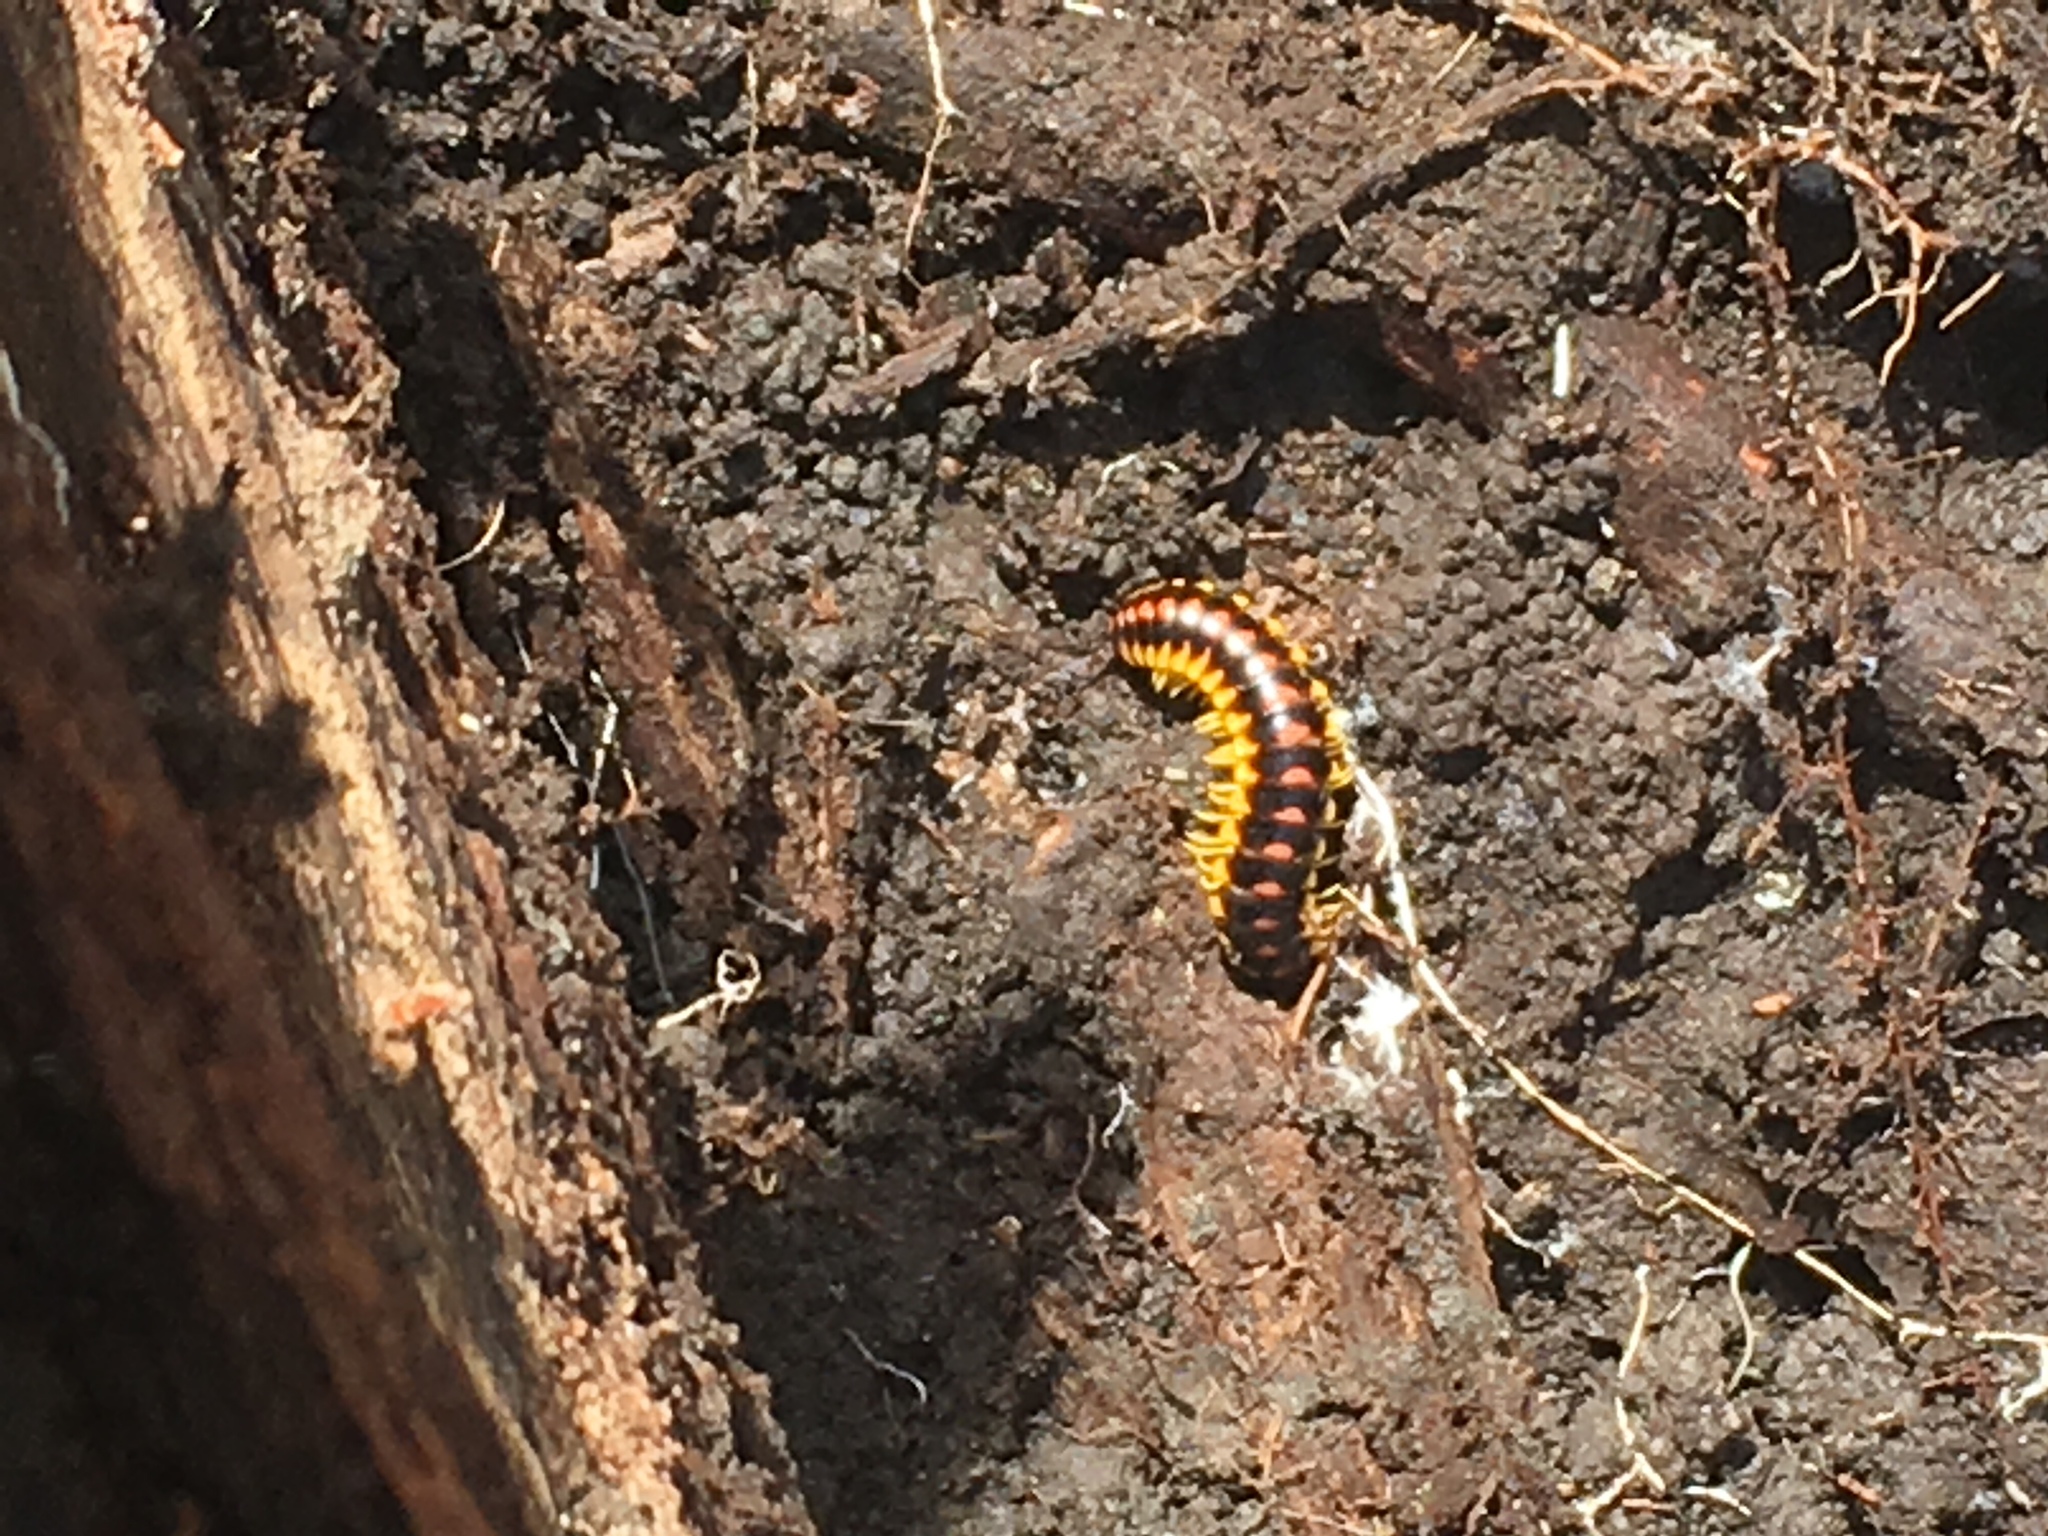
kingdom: Animalia
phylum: Arthropoda
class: Diplopoda
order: Polydesmida
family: Xystodesmidae
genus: Rudiloria
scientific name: Rudiloria guyandotta
